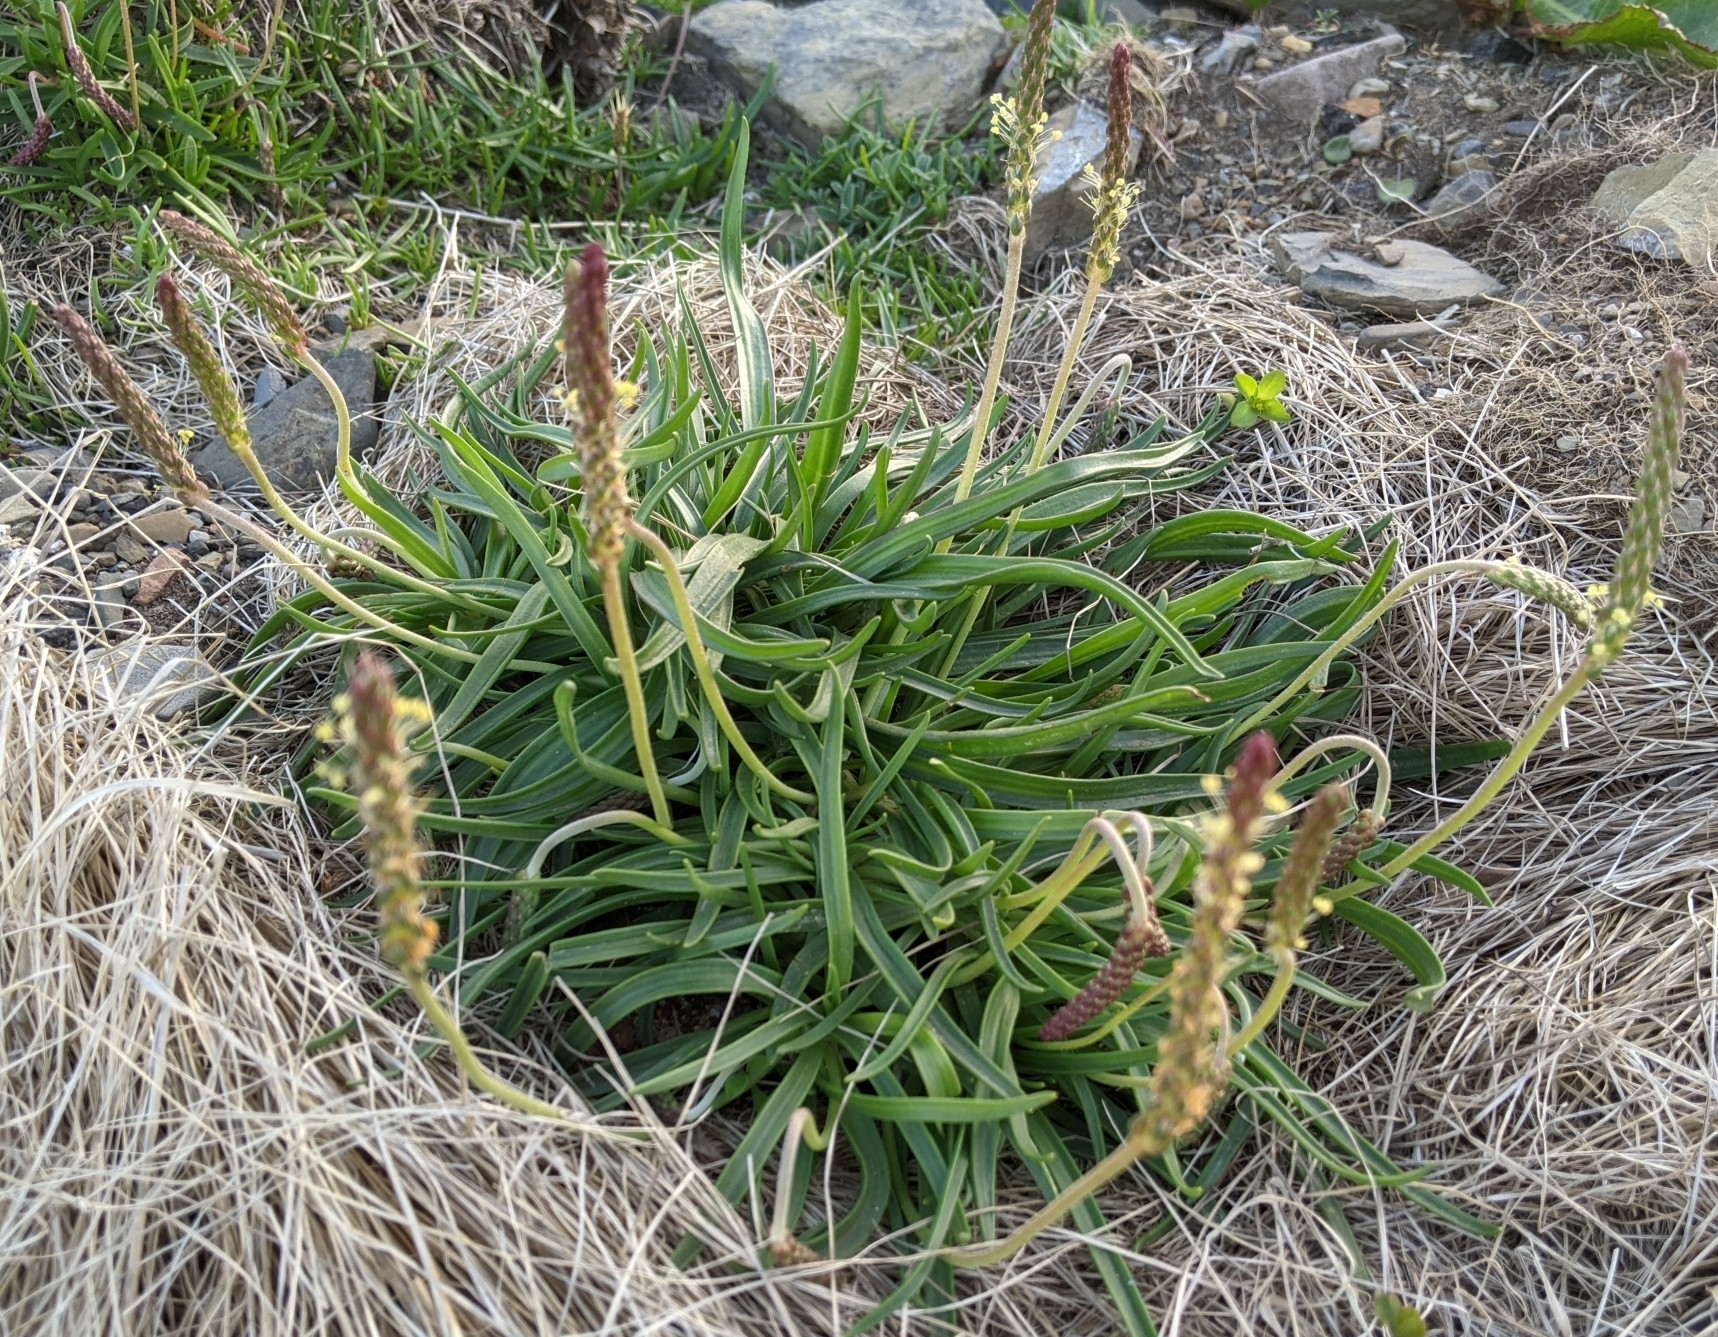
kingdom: Plantae
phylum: Tracheophyta
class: Magnoliopsida
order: Lamiales
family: Plantaginaceae
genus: Plantago
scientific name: Plantago maritima
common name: Sea plantain
